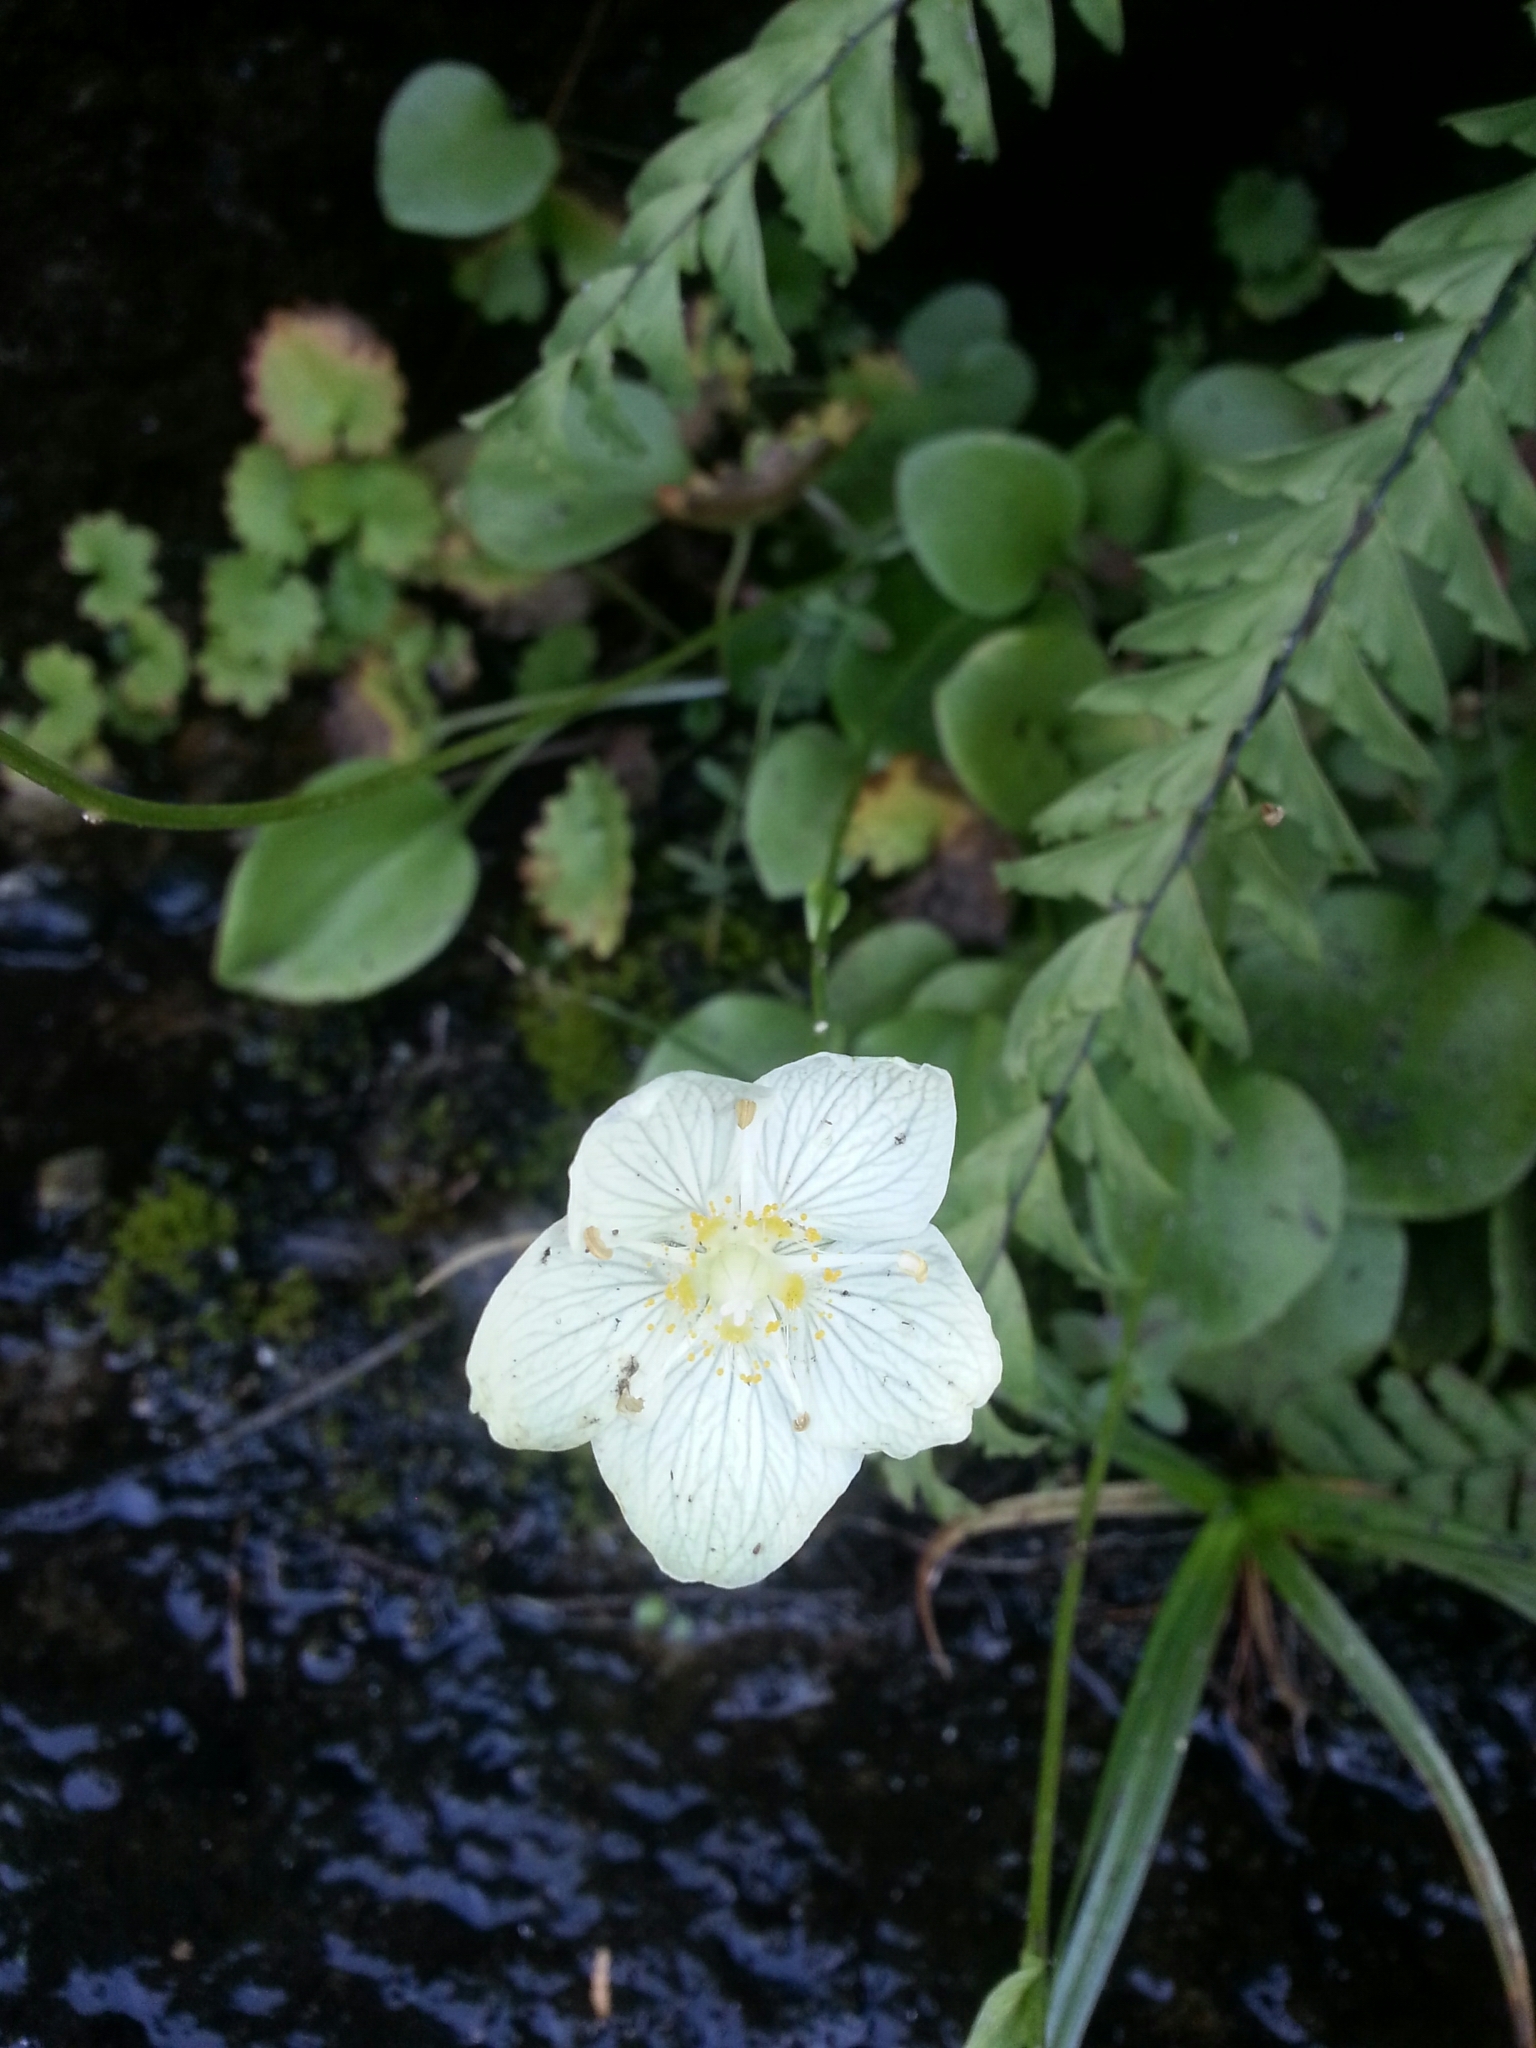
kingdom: Plantae
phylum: Tracheophyta
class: Magnoliopsida
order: Celastrales
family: Parnassiaceae
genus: Parnassia
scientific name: Parnassia palustris
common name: Grass-of-parnassus
